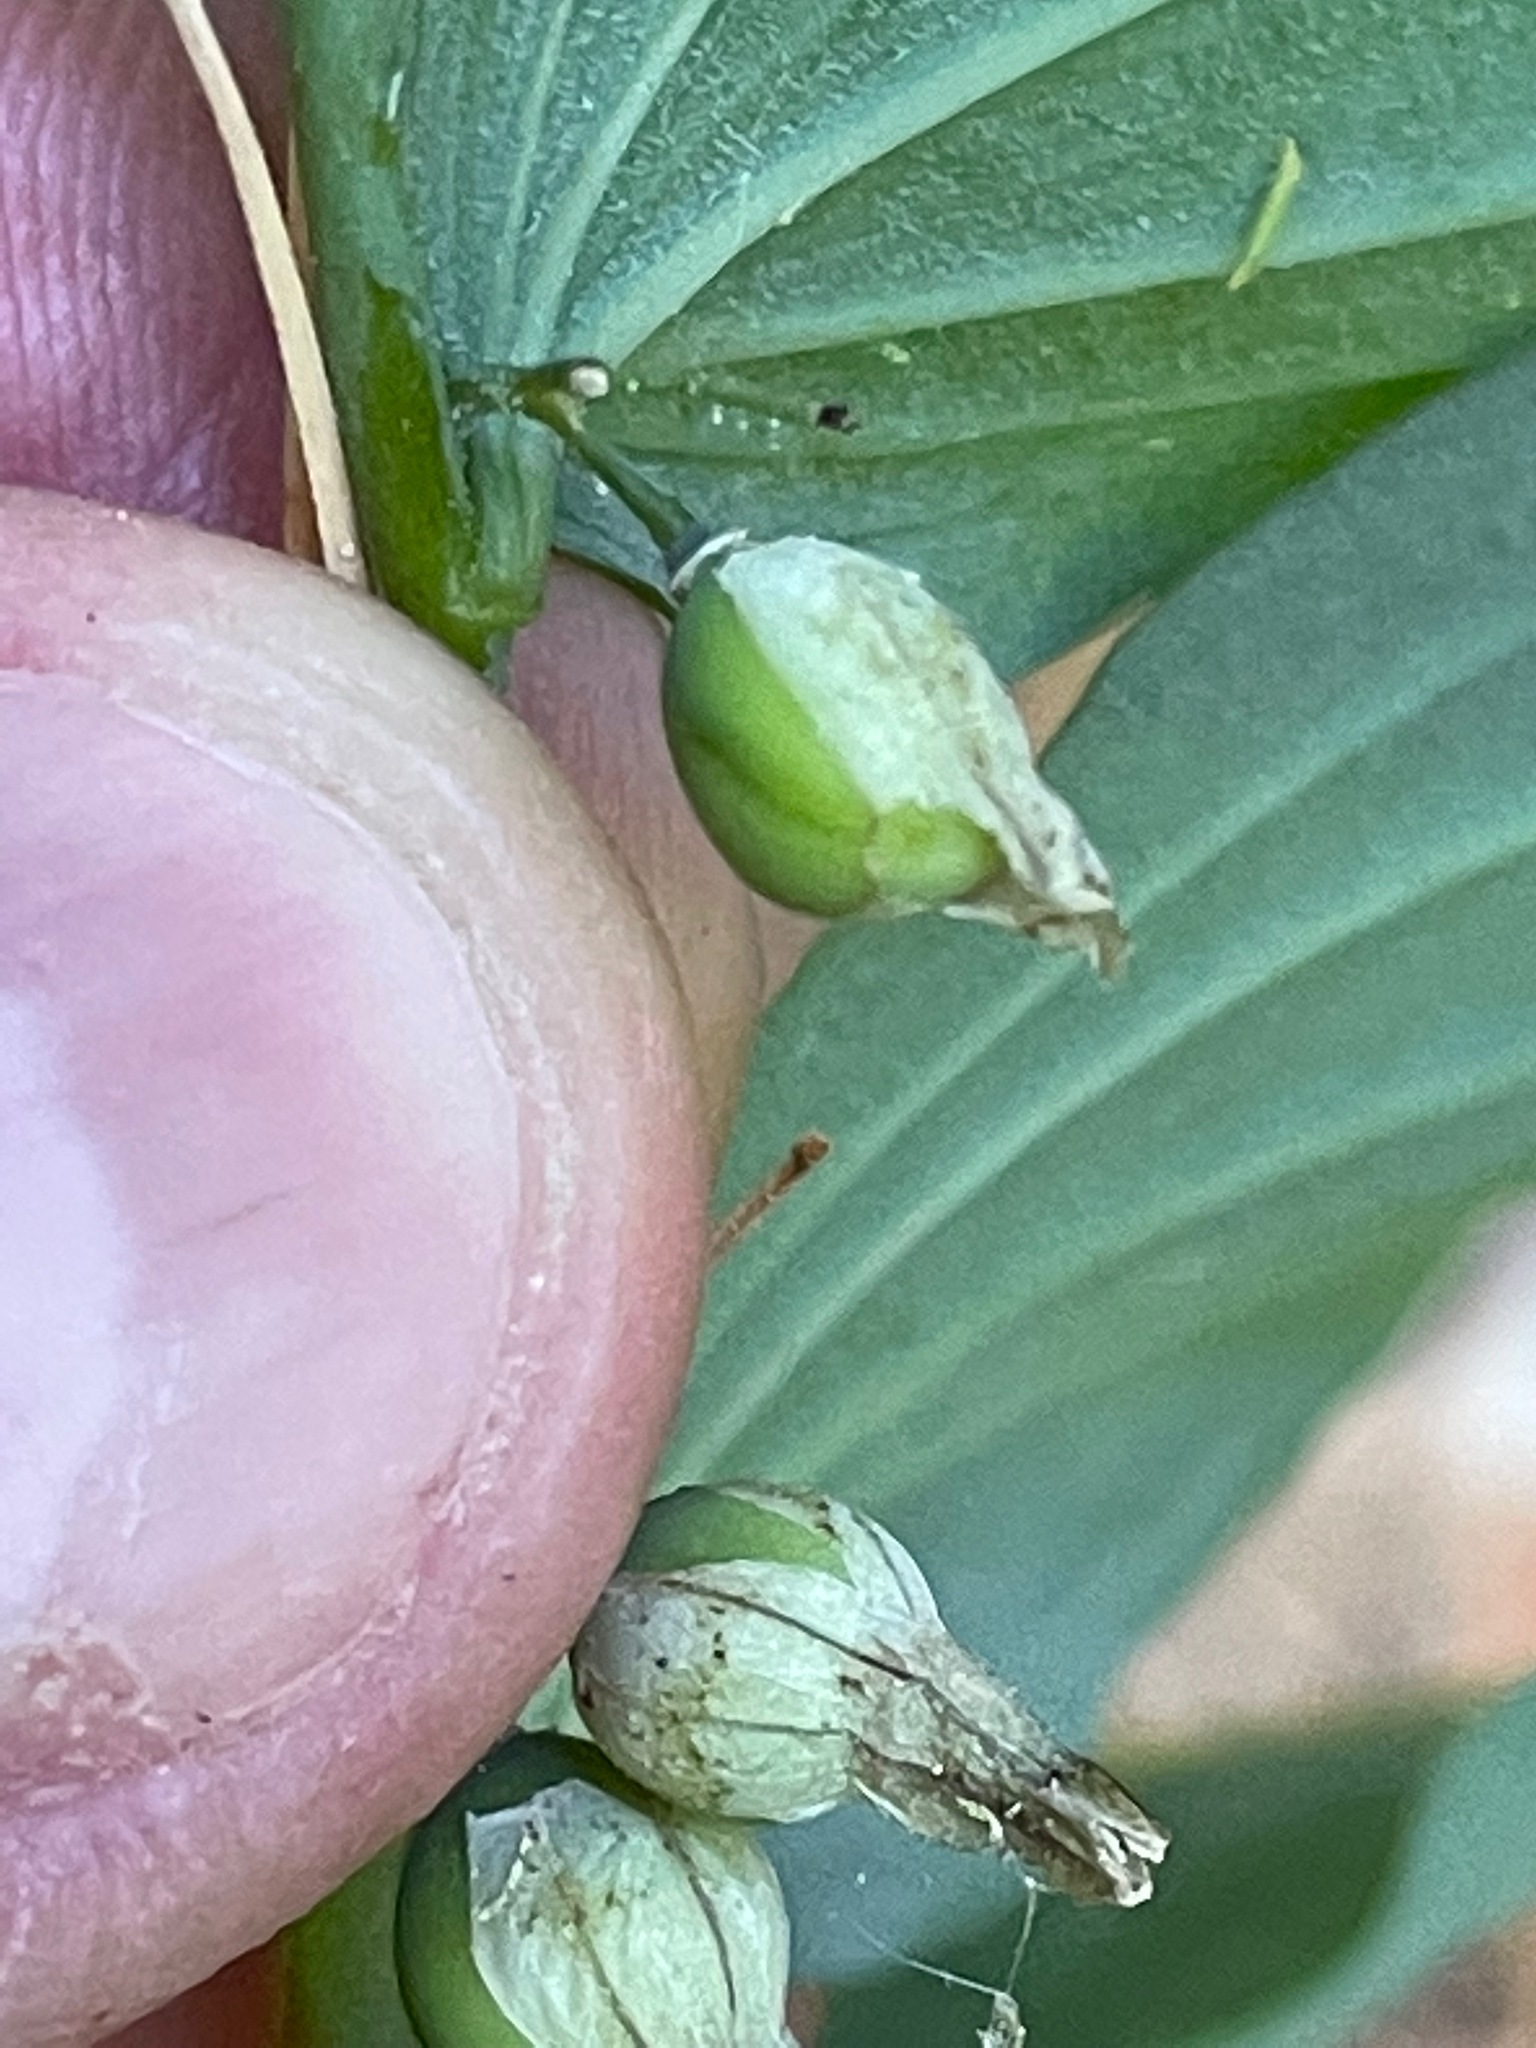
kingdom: Plantae
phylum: Tracheophyta
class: Liliopsida
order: Asparagales
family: Asparagaceae
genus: Polygonatum
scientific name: Polygonatum pubescens
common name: Downy solomon's seal
